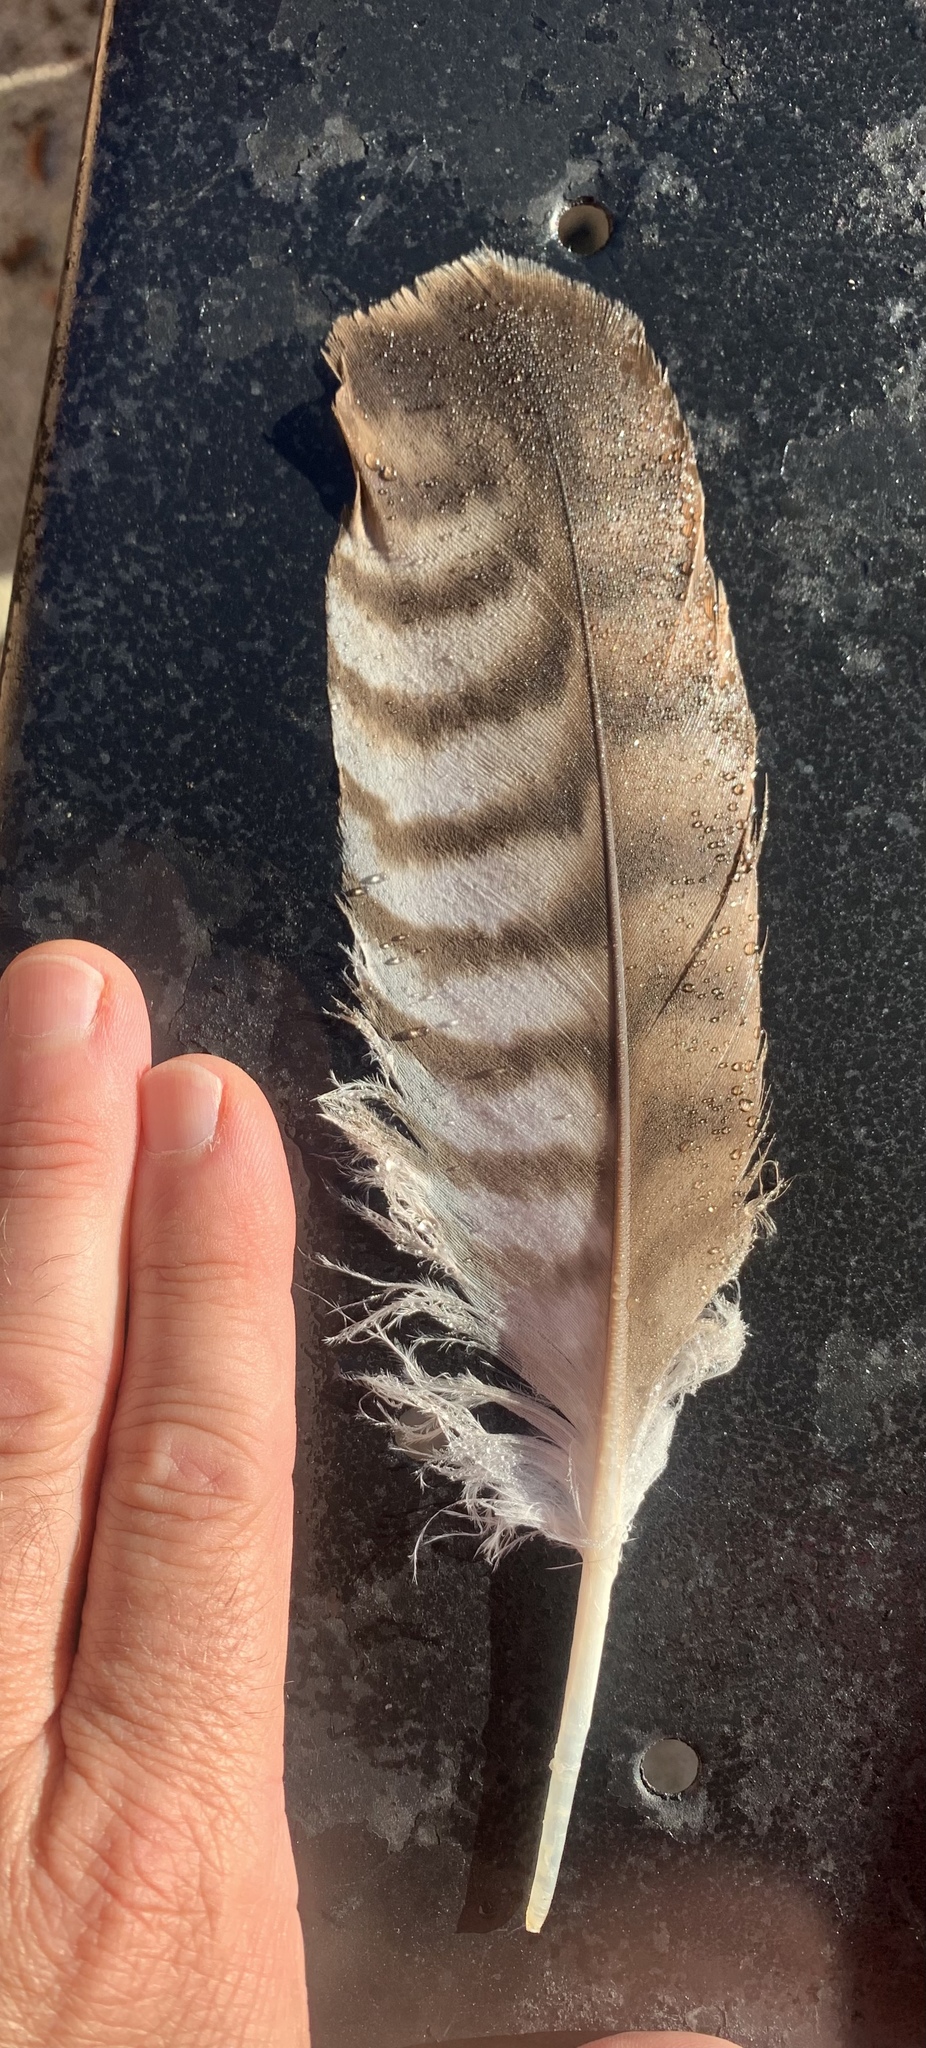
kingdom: Animalia
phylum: Chordata
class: Aves
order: Accipitriformes
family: Accipitridae
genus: Buteo
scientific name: Buteo jamaicensis
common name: Red-tailed hawk
